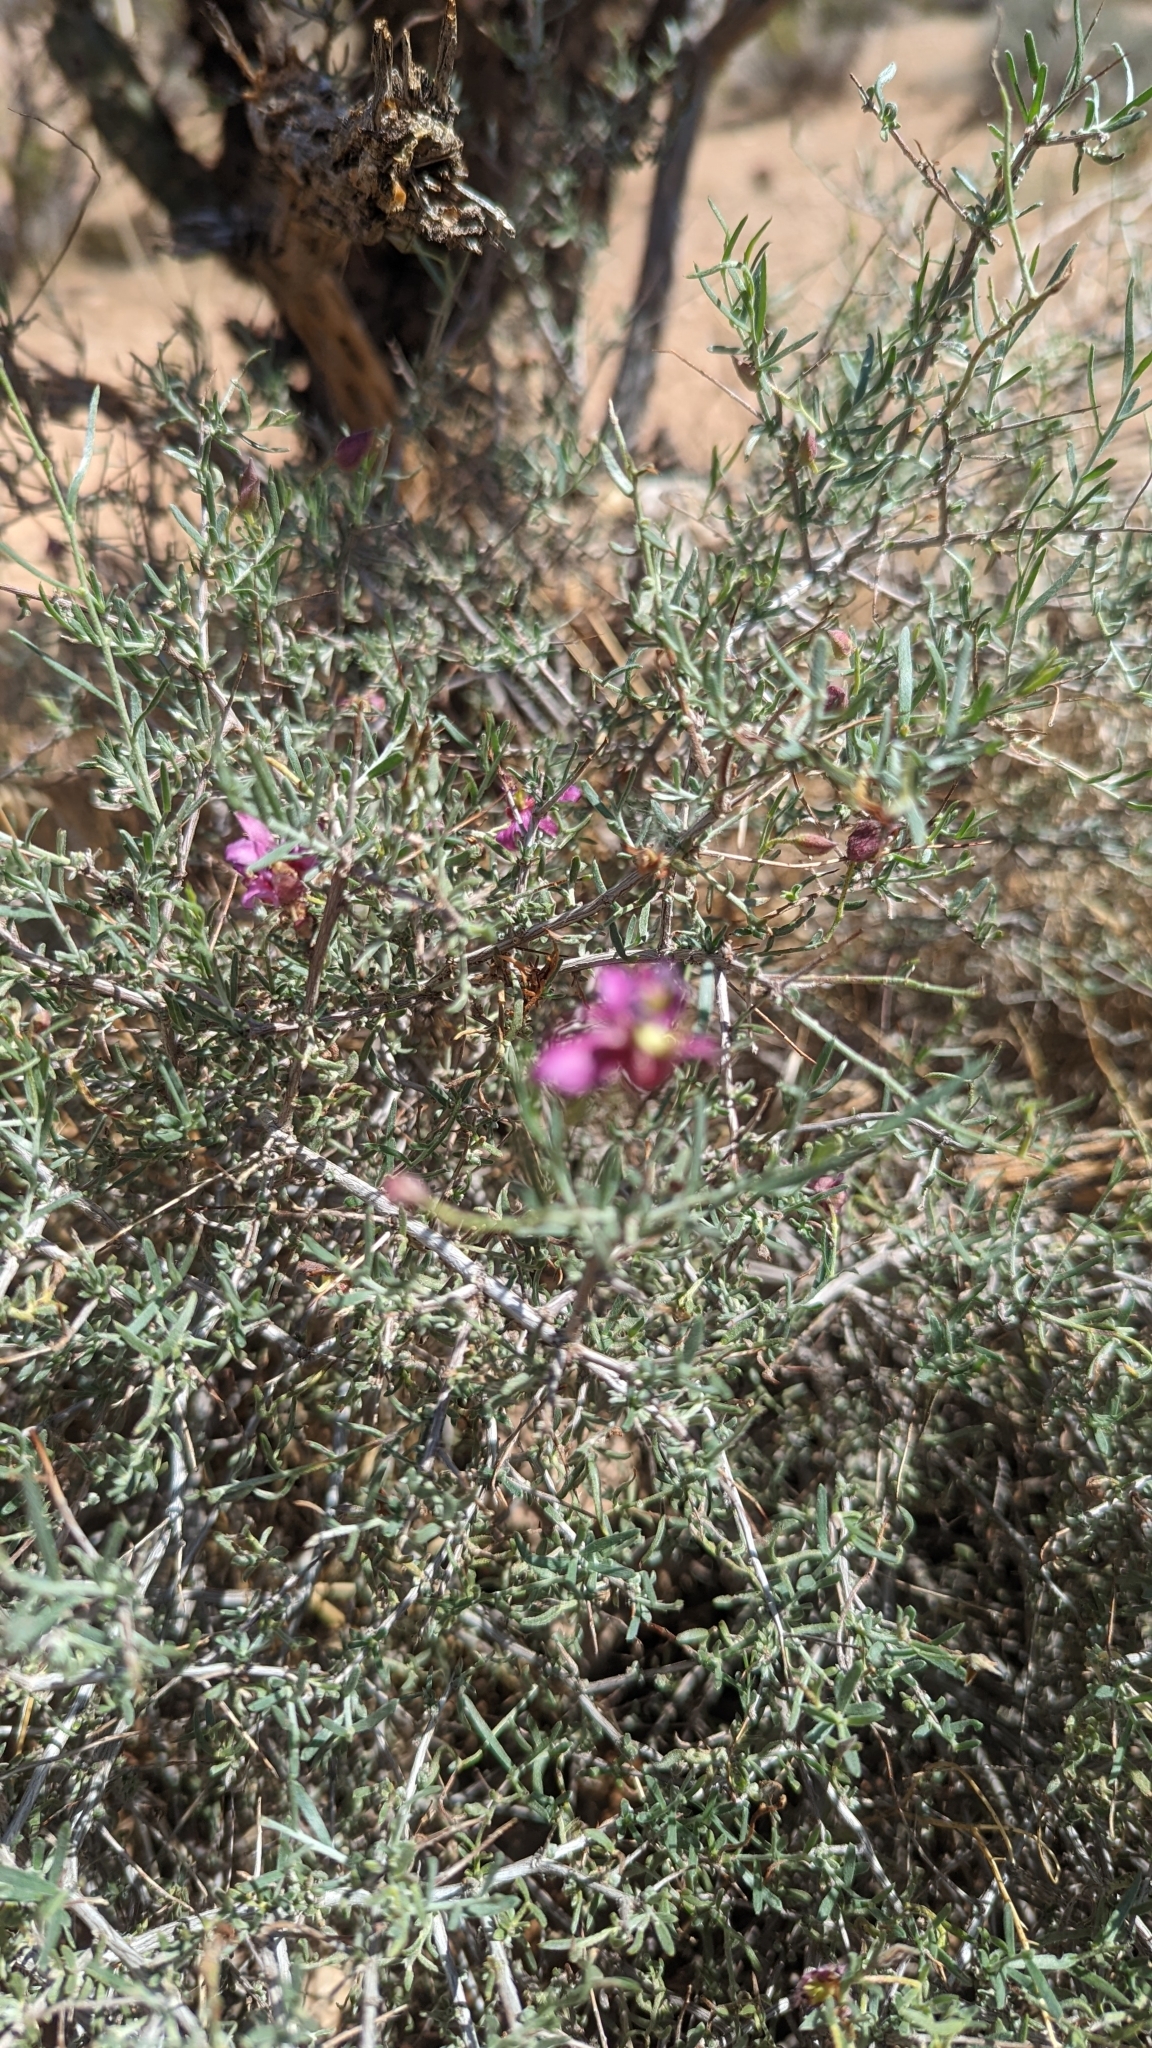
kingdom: Plantae
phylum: Tracheophyta
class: Magnoliopsida
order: Zygophyllales
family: Krameriaceae
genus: Krameria
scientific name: Krameria erecta
